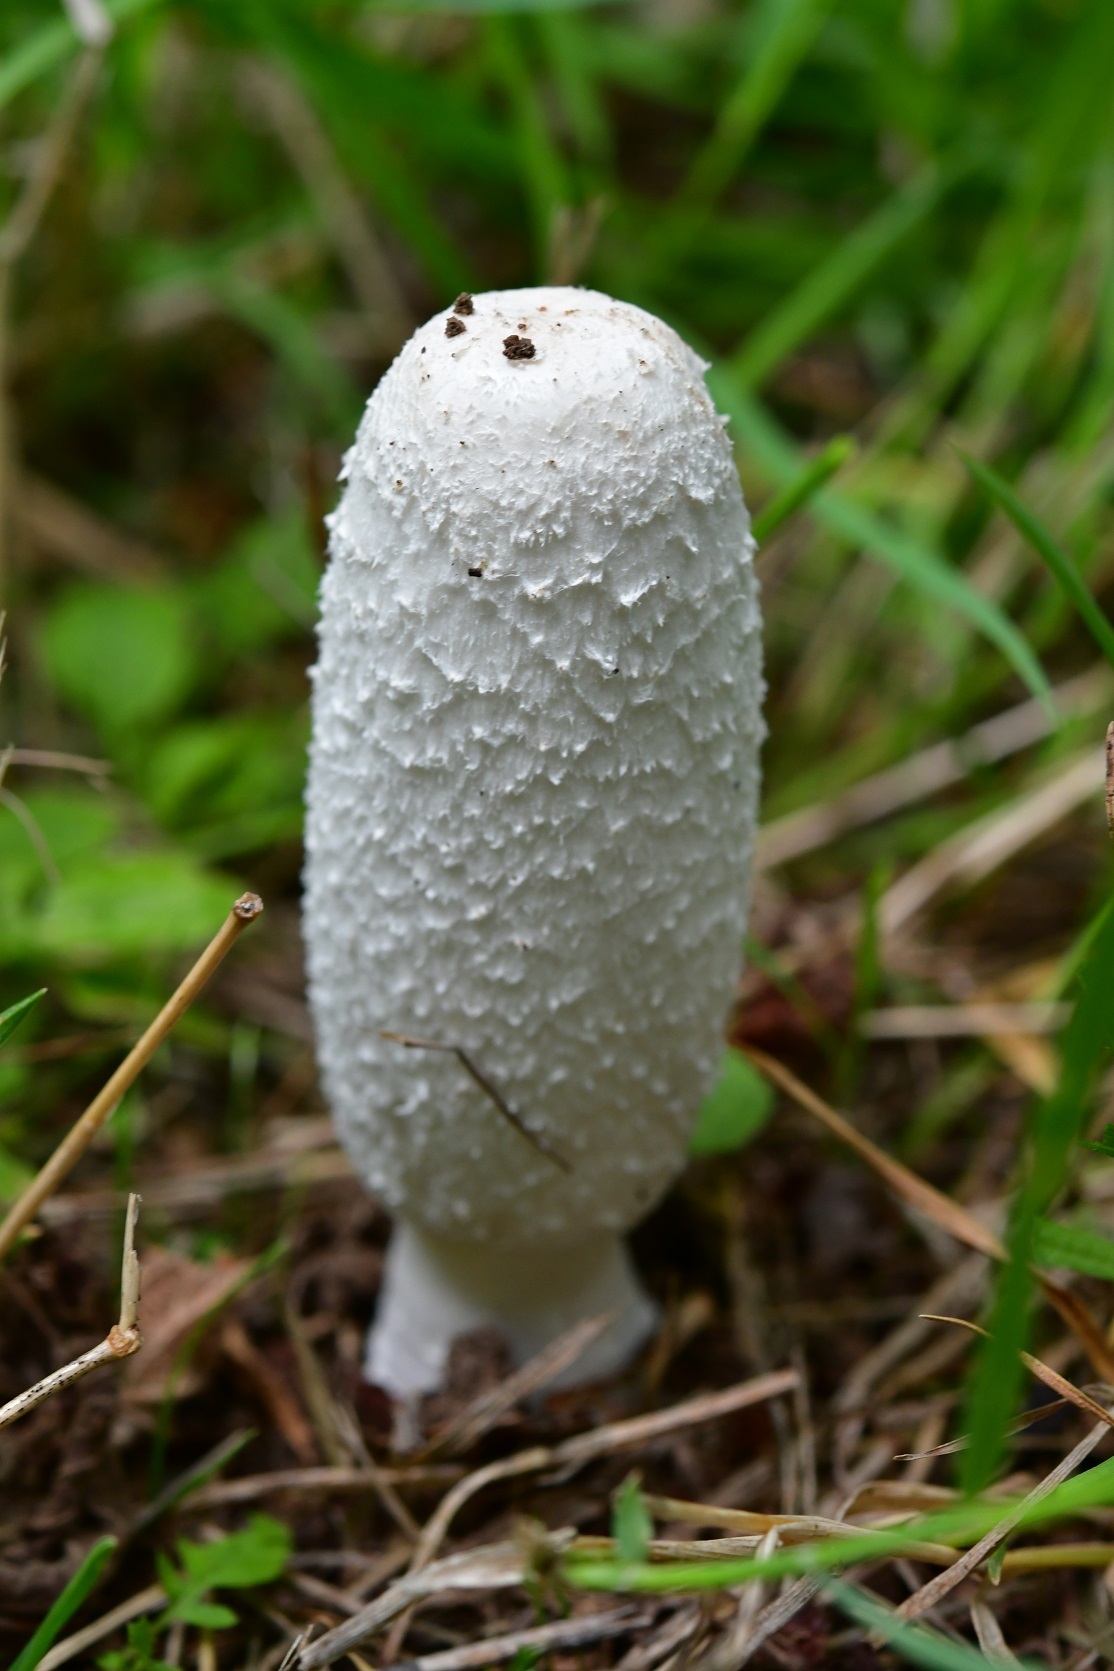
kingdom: Fungi
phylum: Basidiomycota
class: Agaricomycetes
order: Agaricales
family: Agaricaceae
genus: Coprinus
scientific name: Coprinus comatus
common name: Lawyer's wig
